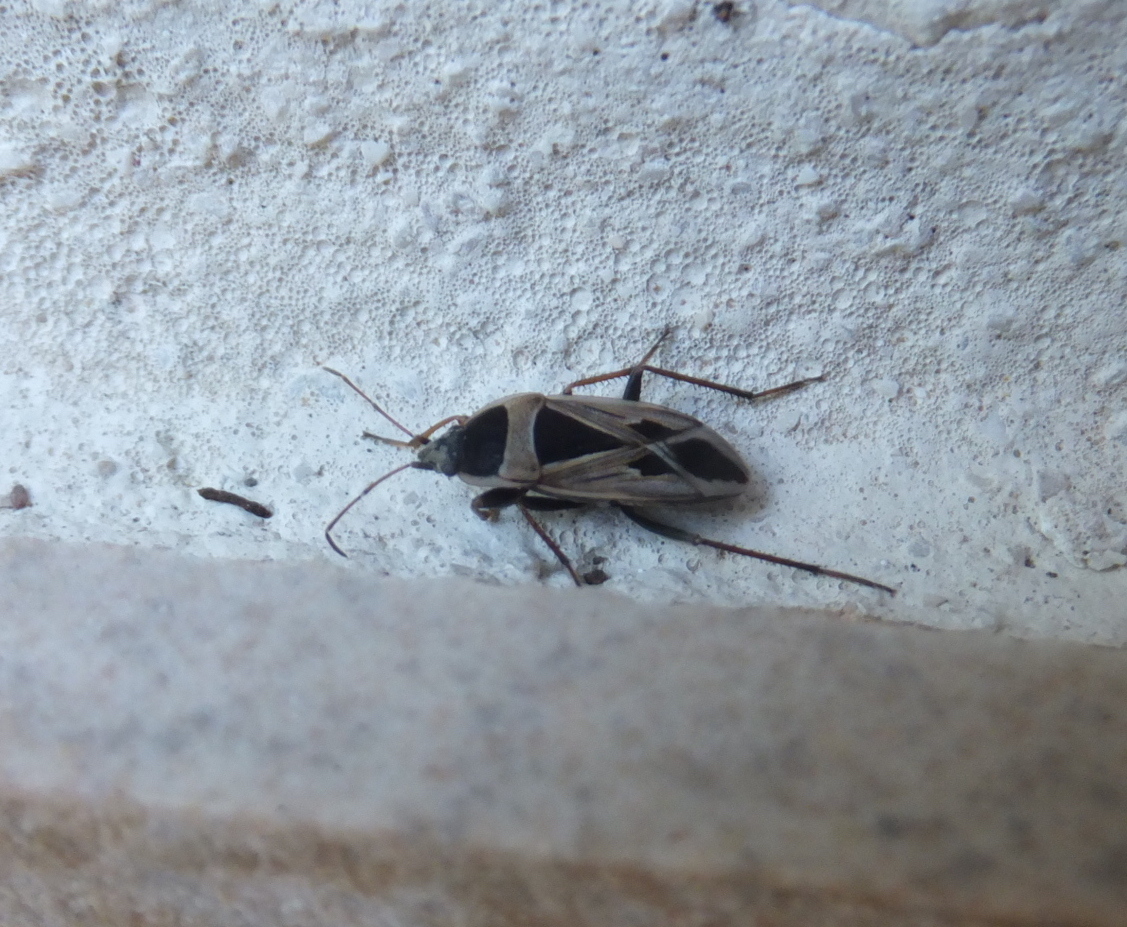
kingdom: Animalia
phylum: Arthropoda
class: Insecta
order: Hemiptera
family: Rhyparochromidae
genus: Xanthochilus
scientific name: Xanthochilus saturnius
